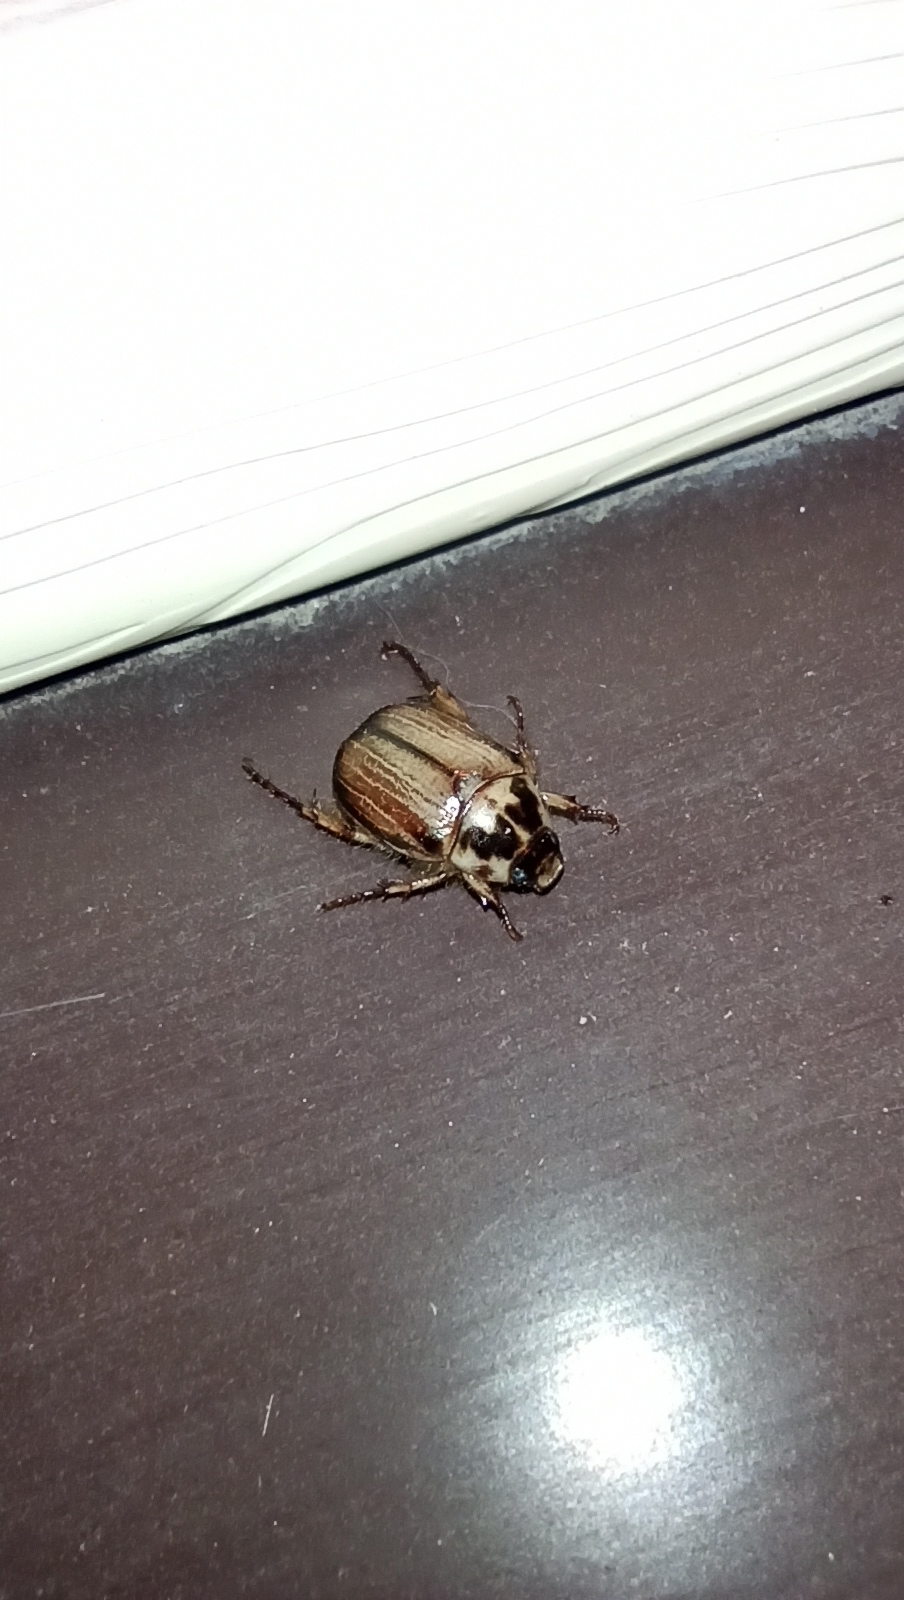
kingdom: Animalia
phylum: Arthropoda
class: Insecta
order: Coleoptera
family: Scarabaeidae
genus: Anomala
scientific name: Anomala errans
